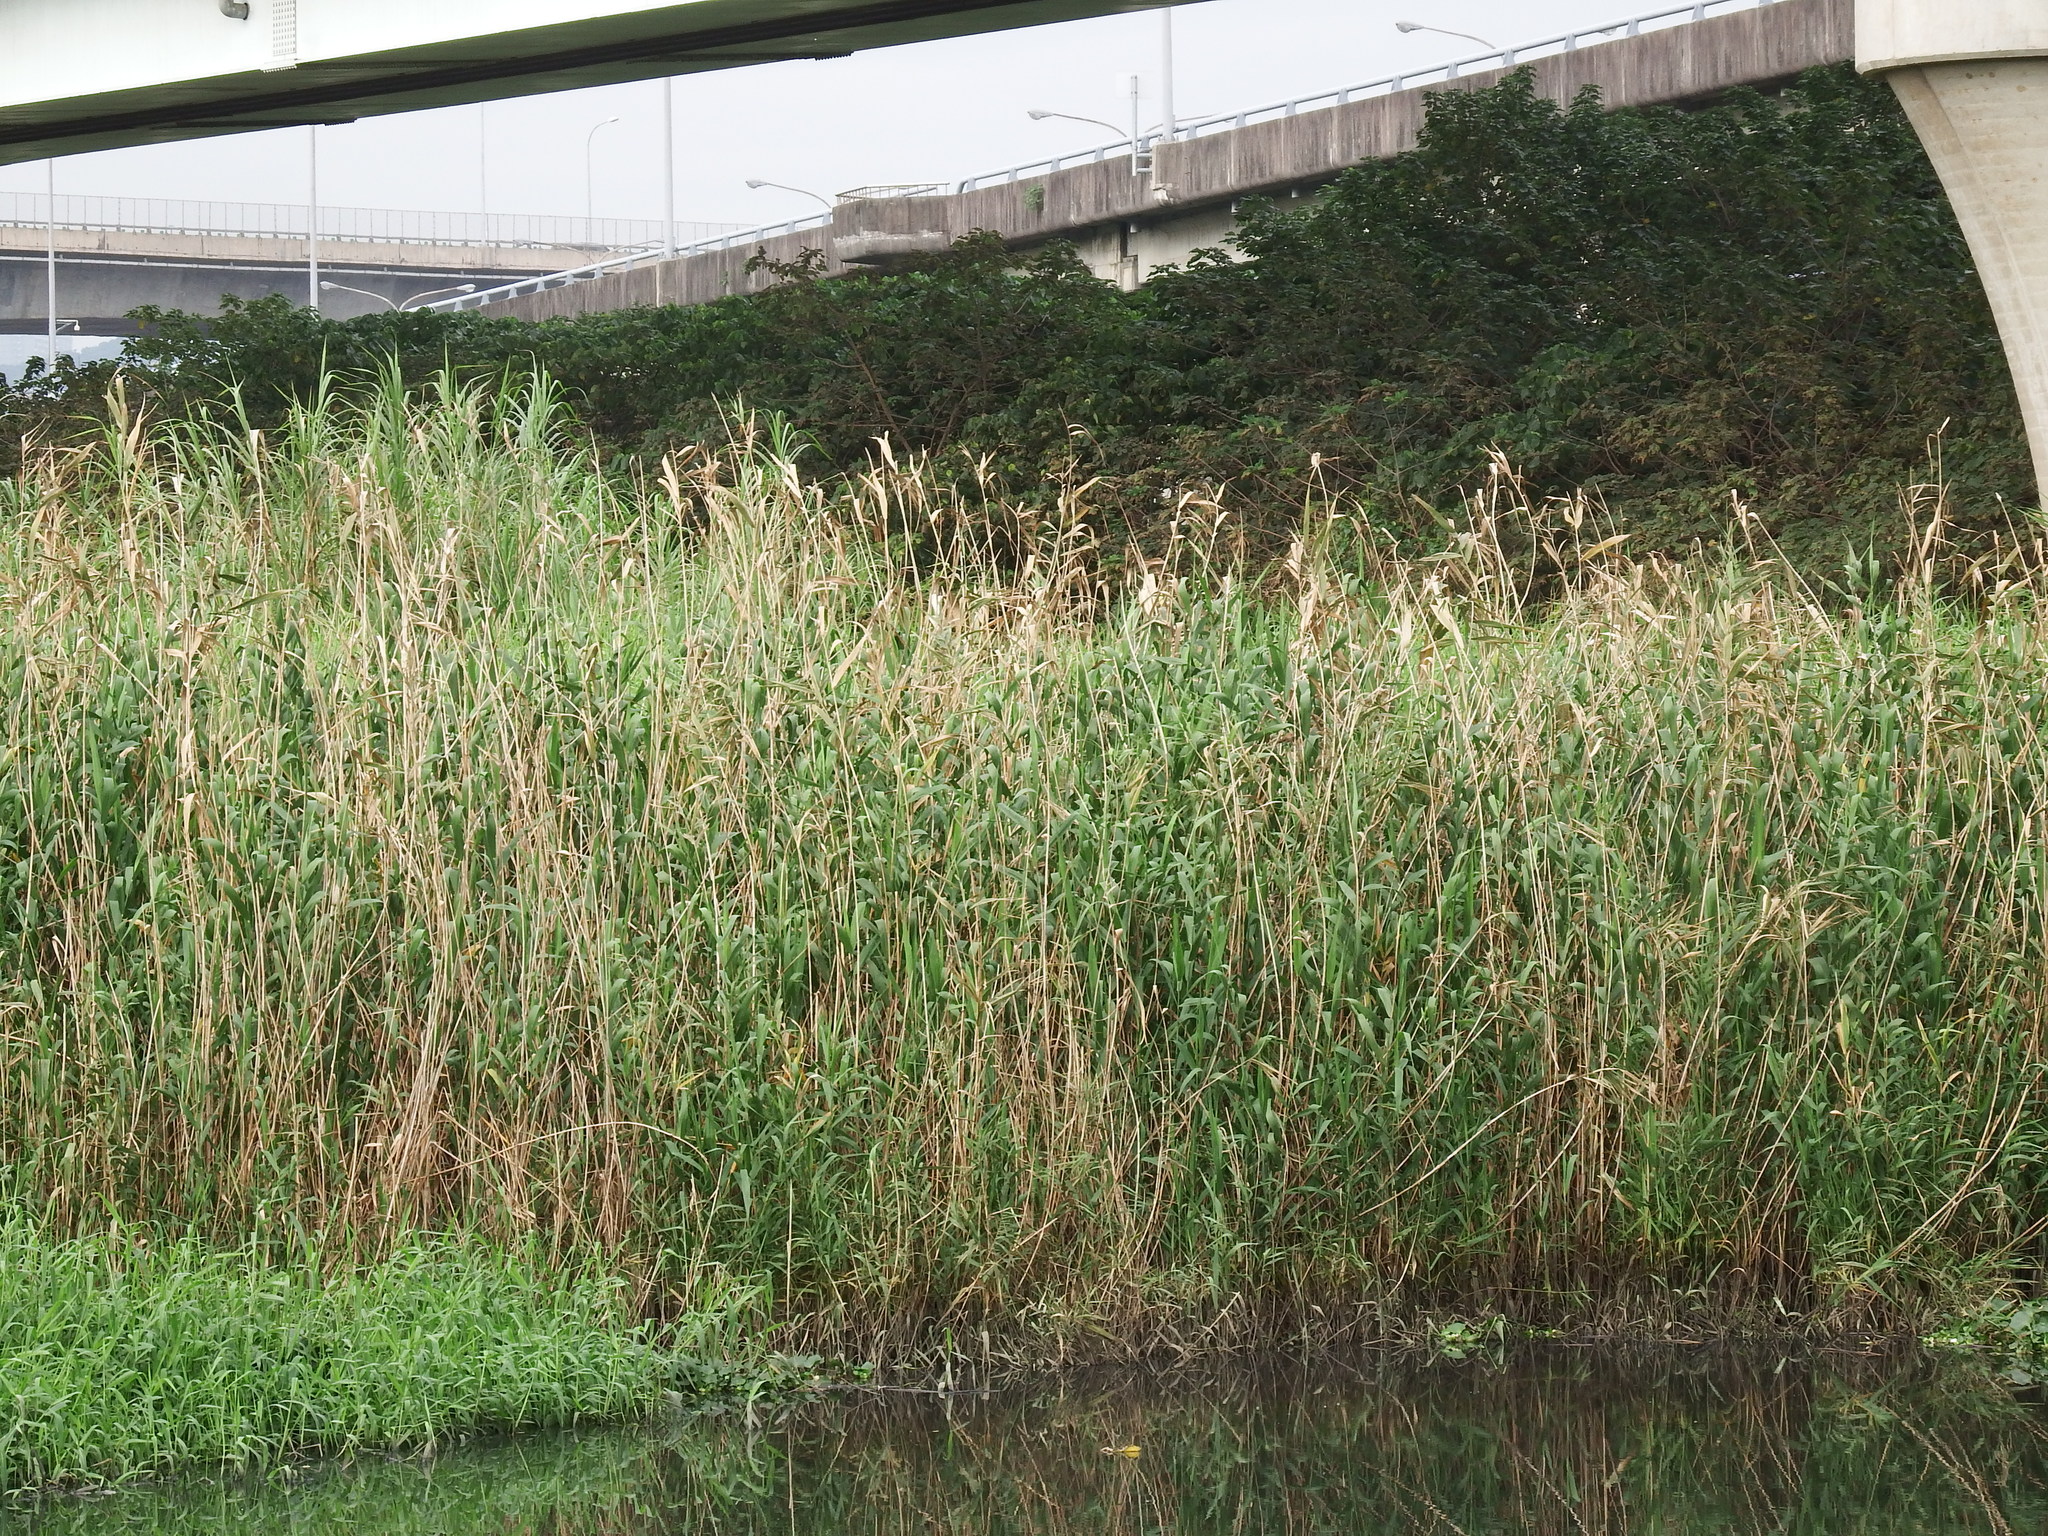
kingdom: Plantae
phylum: Tracheophyta
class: Liliopsida
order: Poales
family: Poaceae
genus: Phragmites
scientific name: Phragmites australis
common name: Common reed
